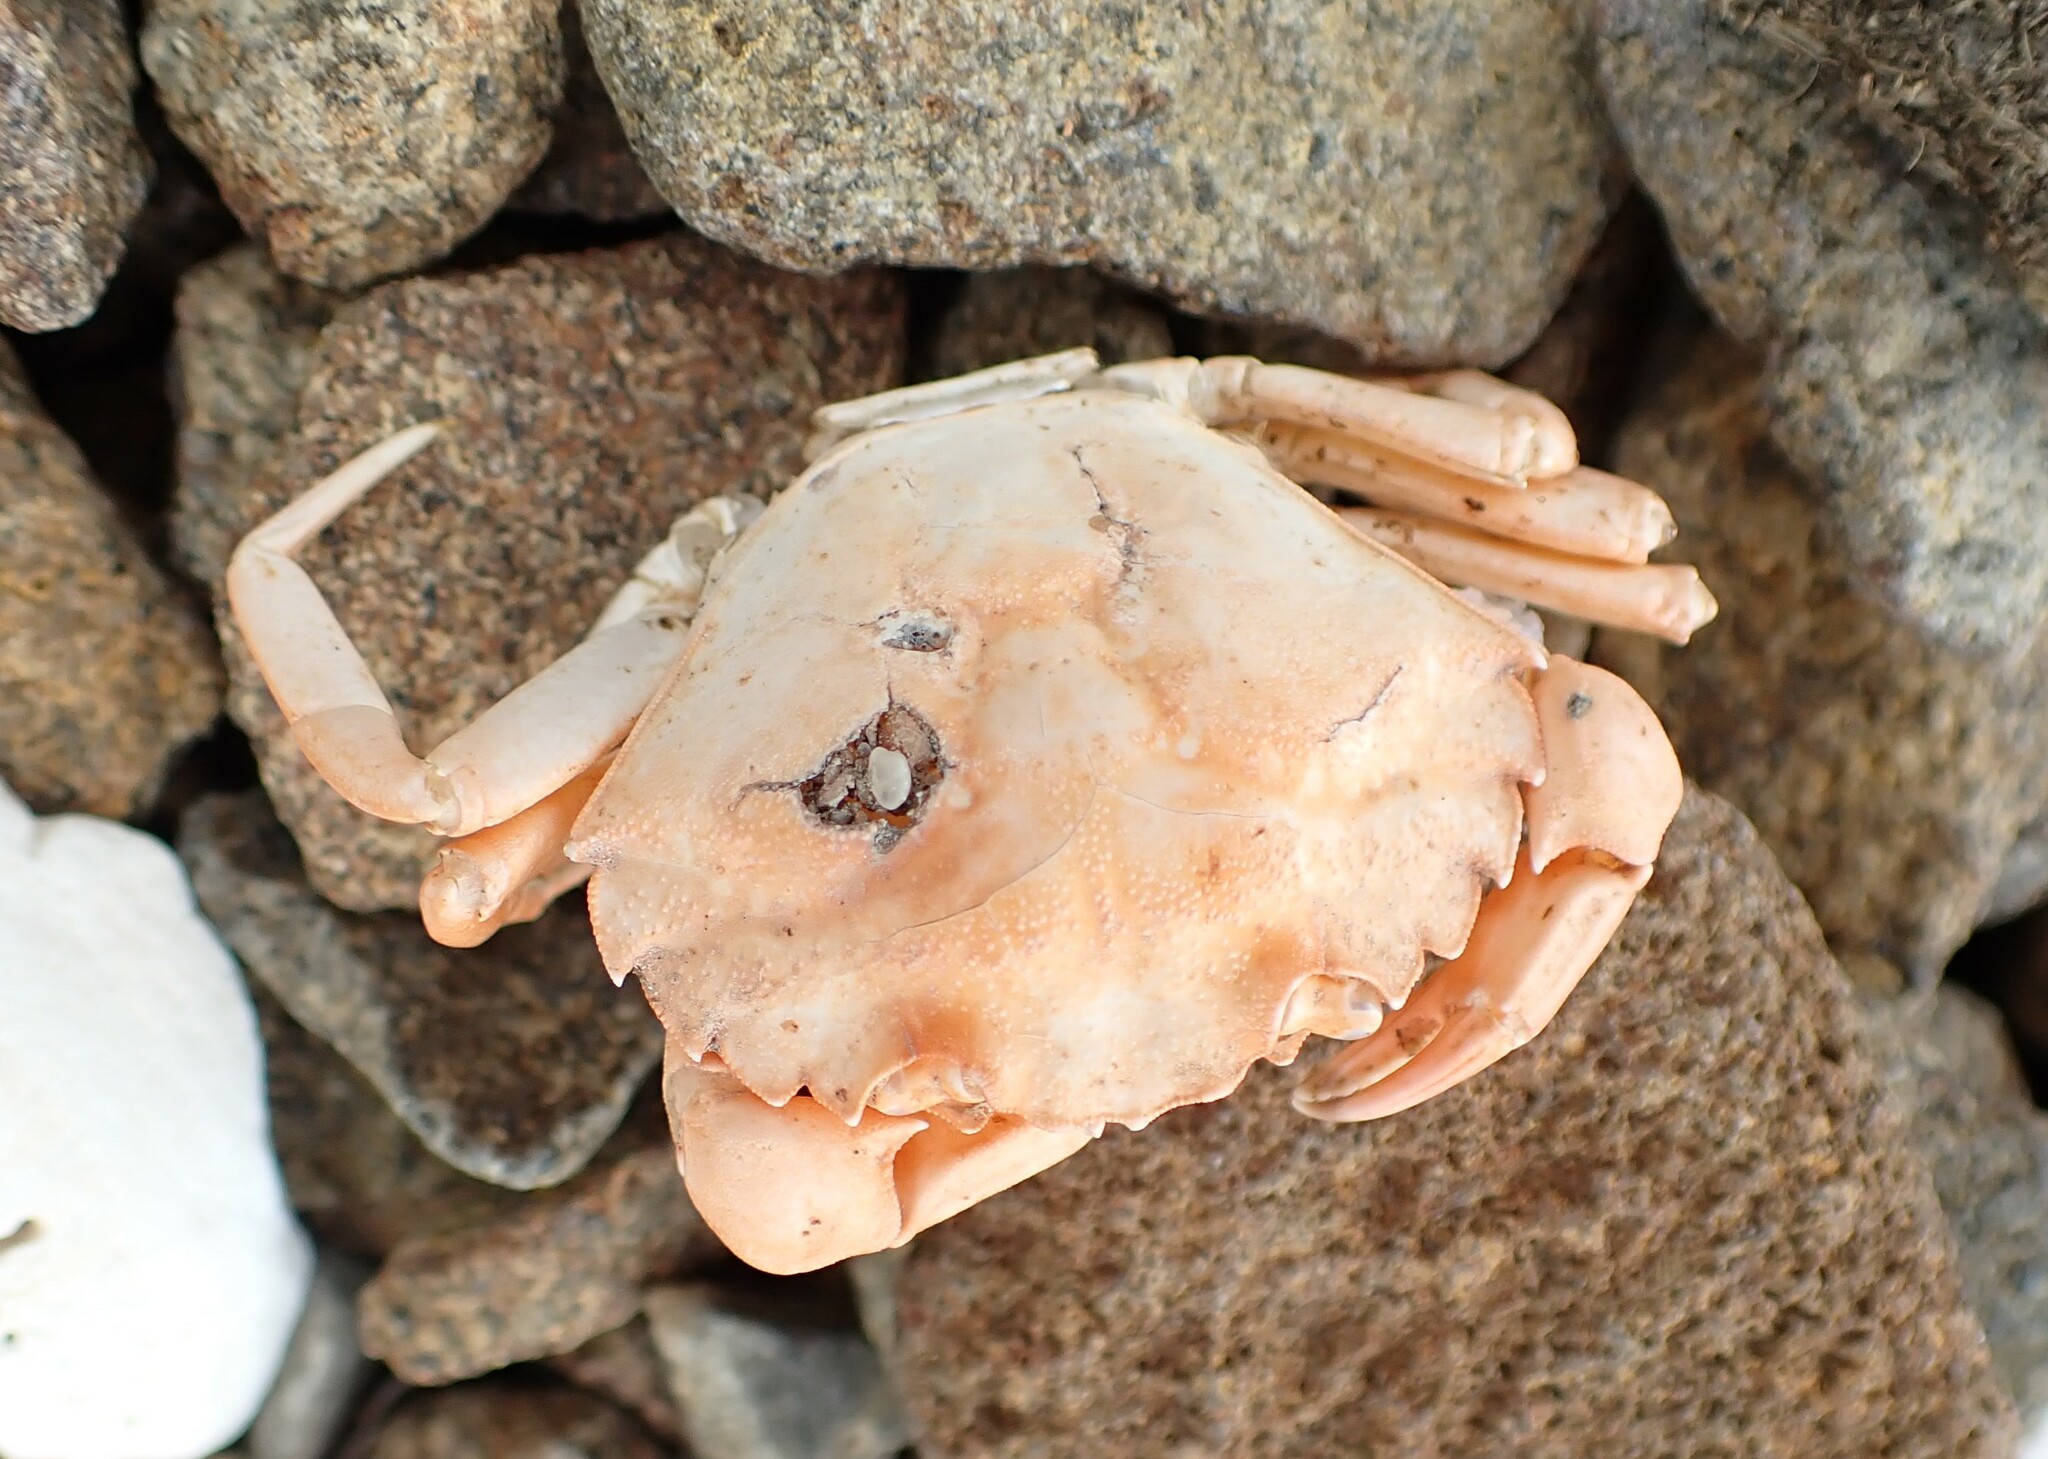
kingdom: Animalia
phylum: Arthropoda
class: Malacostraca
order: Decapoda
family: Carcinidae
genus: Carcinus
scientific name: Carcinus maenas
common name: European green crab
